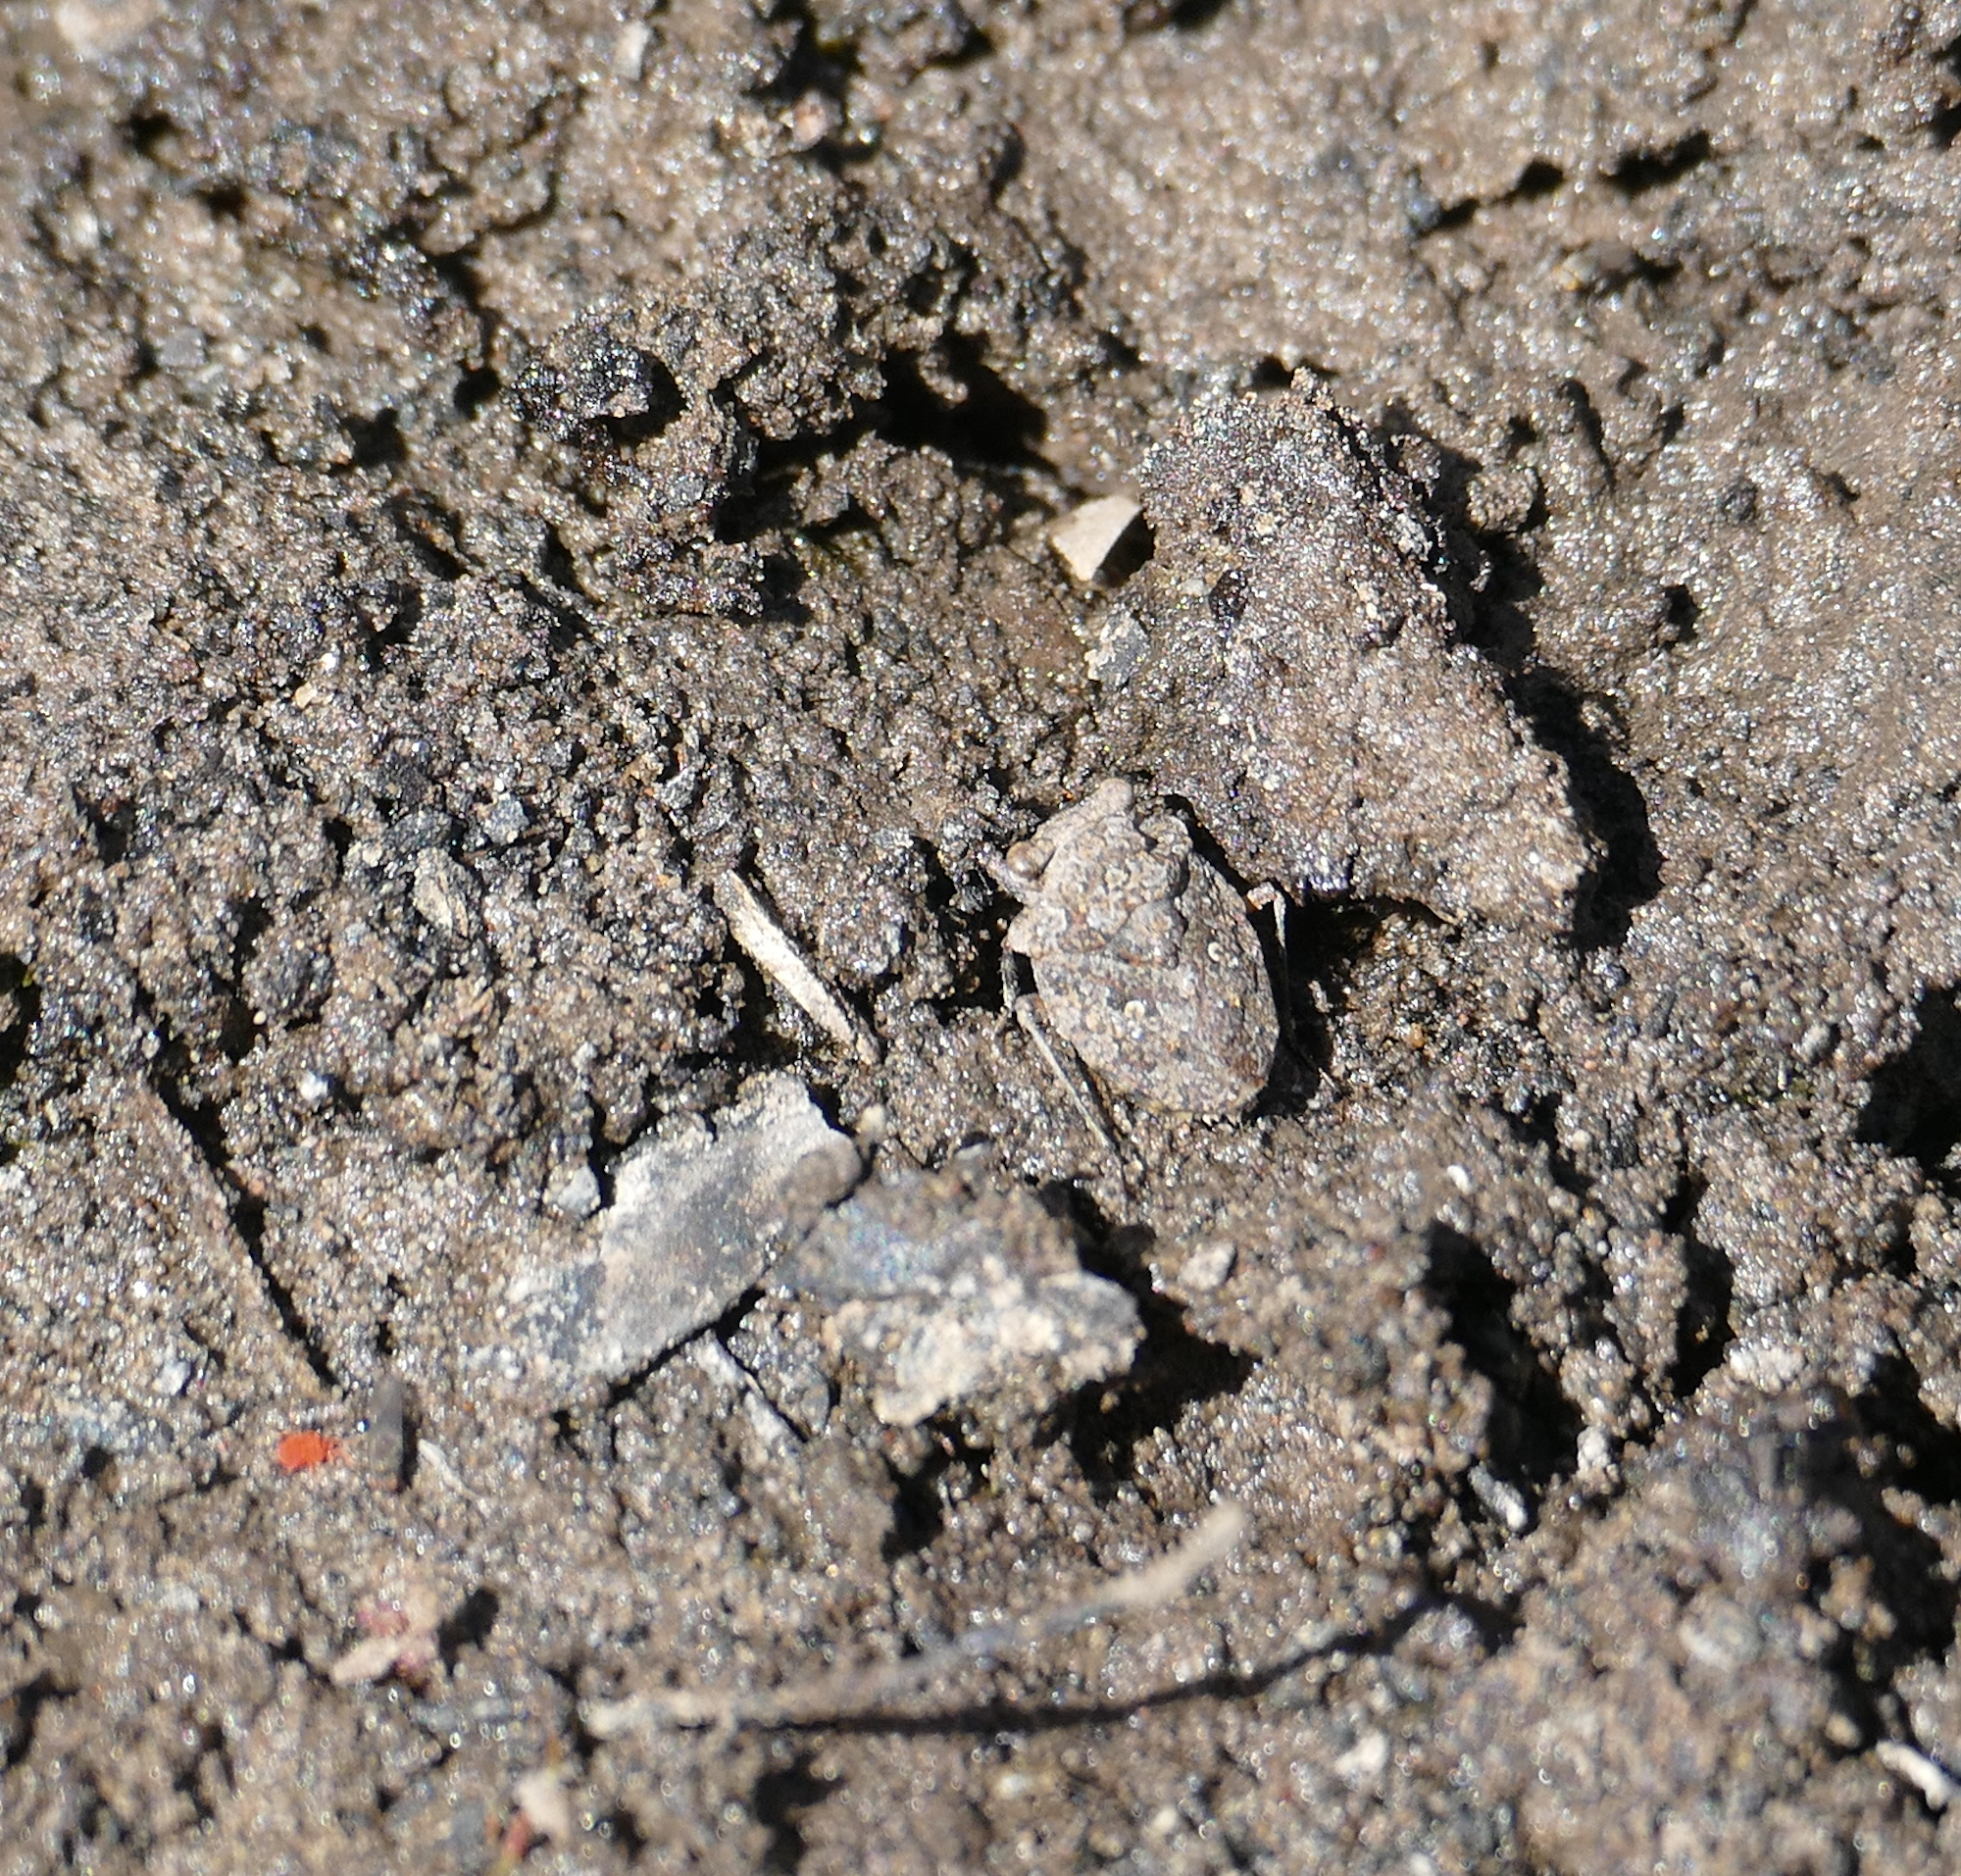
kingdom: Animalia
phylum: Arthropoda
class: Insecta
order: Hemiptera
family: Gelastocoridae
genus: Gelastocoris
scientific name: Gelastocoris oculatus
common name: Toad bug
